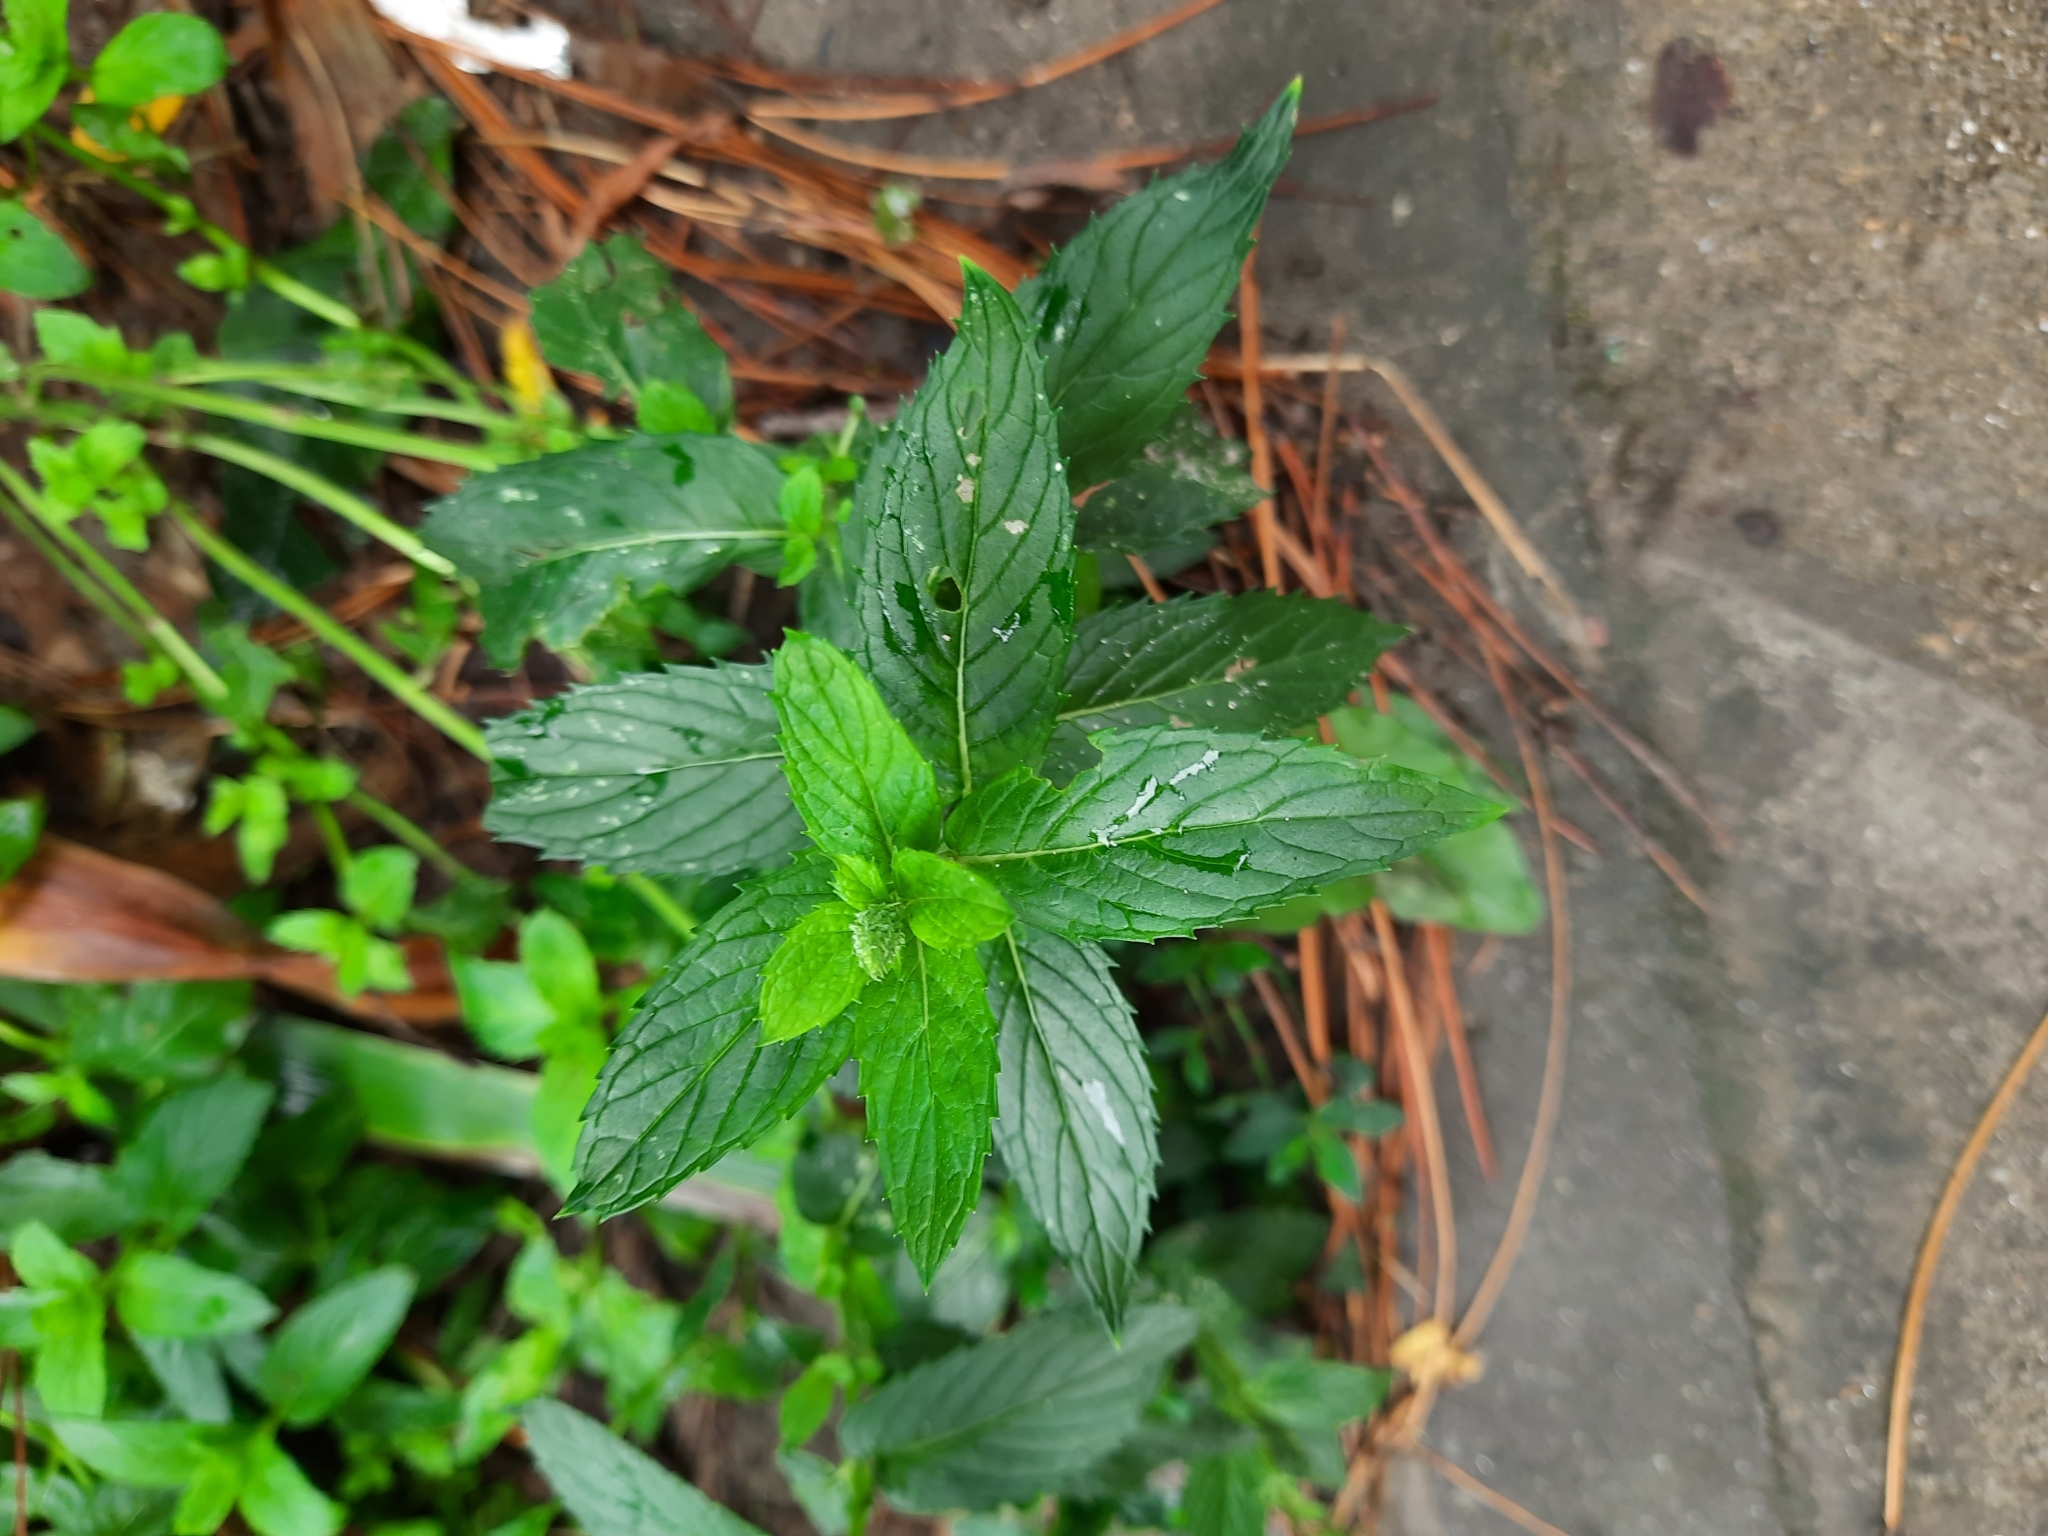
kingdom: Plantae
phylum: Tracheophyta
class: Magnoliopsida
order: Lamiales
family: Lamiaceae
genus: Mentha
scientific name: Mentha spicata
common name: Spearmint
